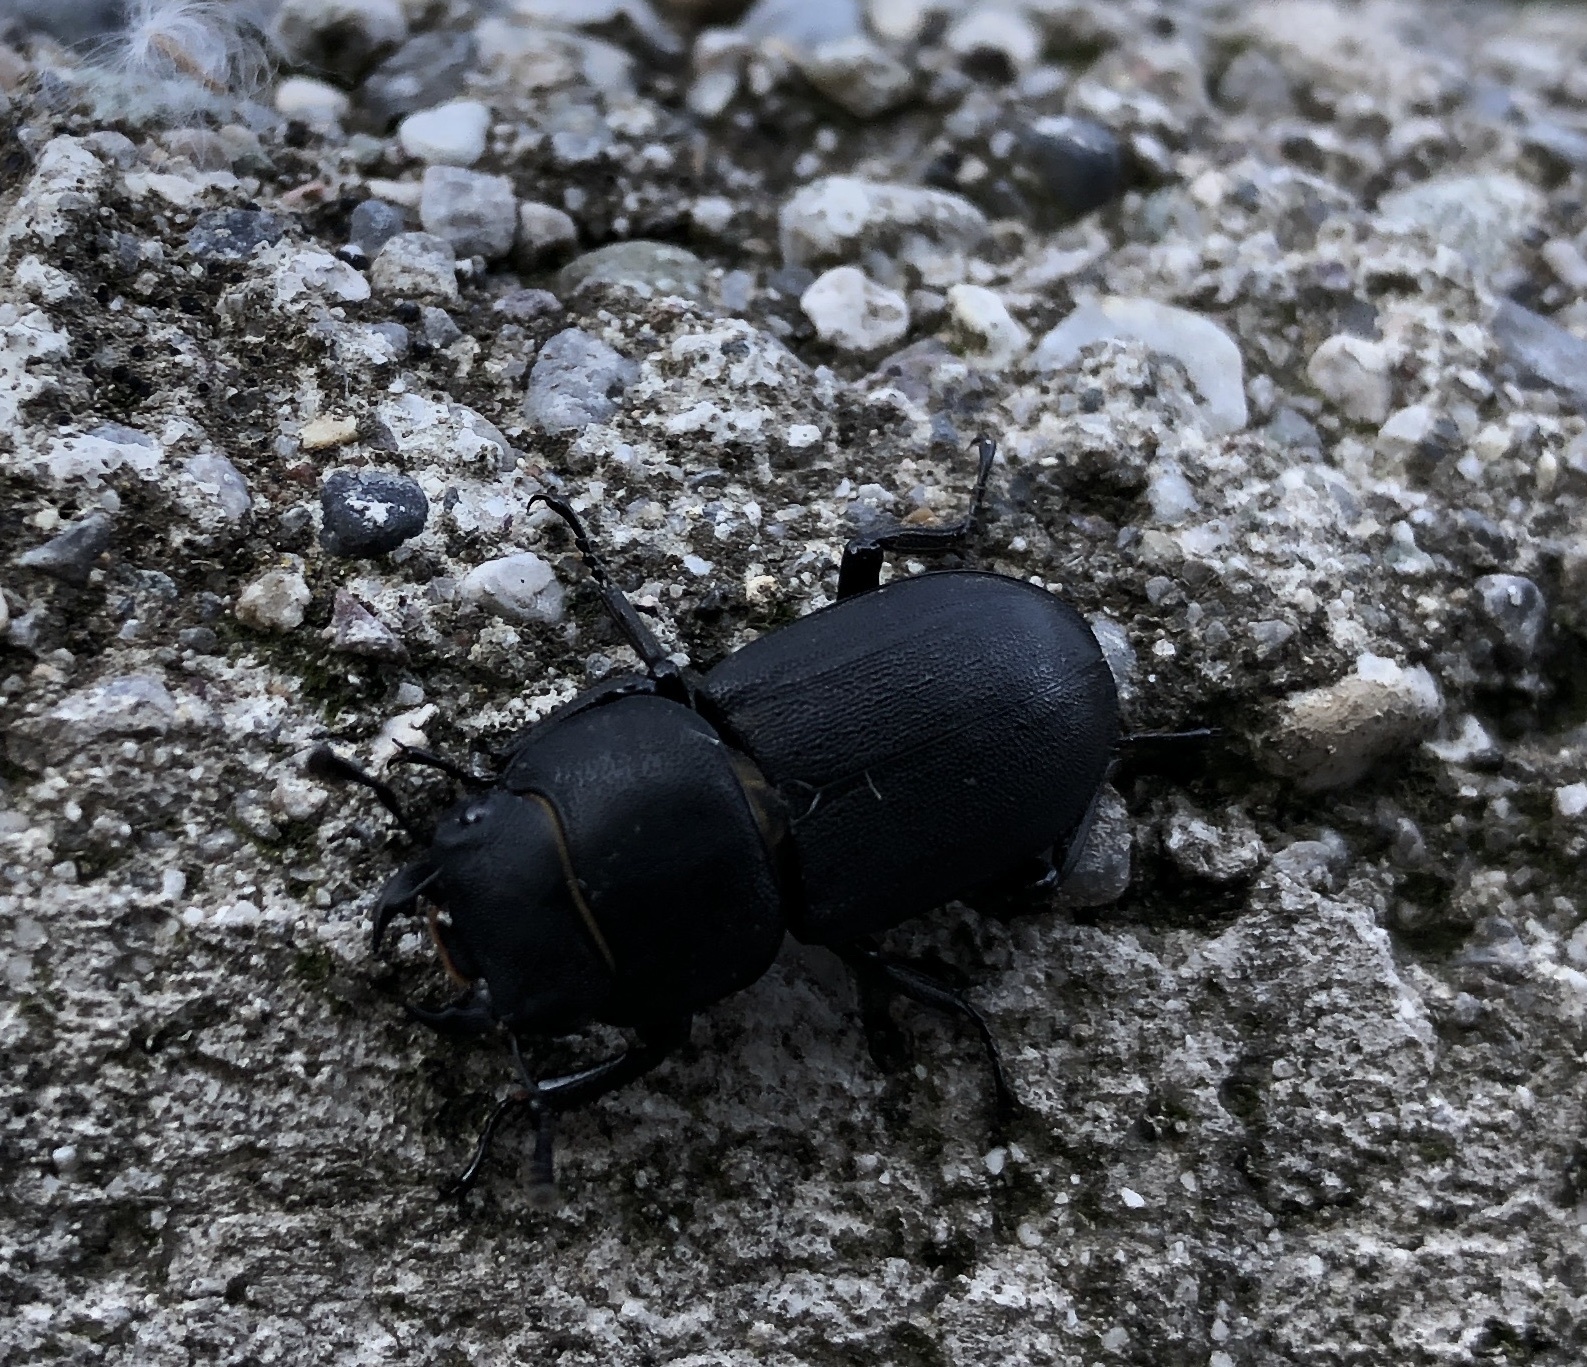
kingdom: Animalia
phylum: Arthropoda
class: Insecta
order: Coleoptera
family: Lucanidae
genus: Dorcus
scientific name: Dorcus parallelipipedus
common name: Lesser stag beetle
